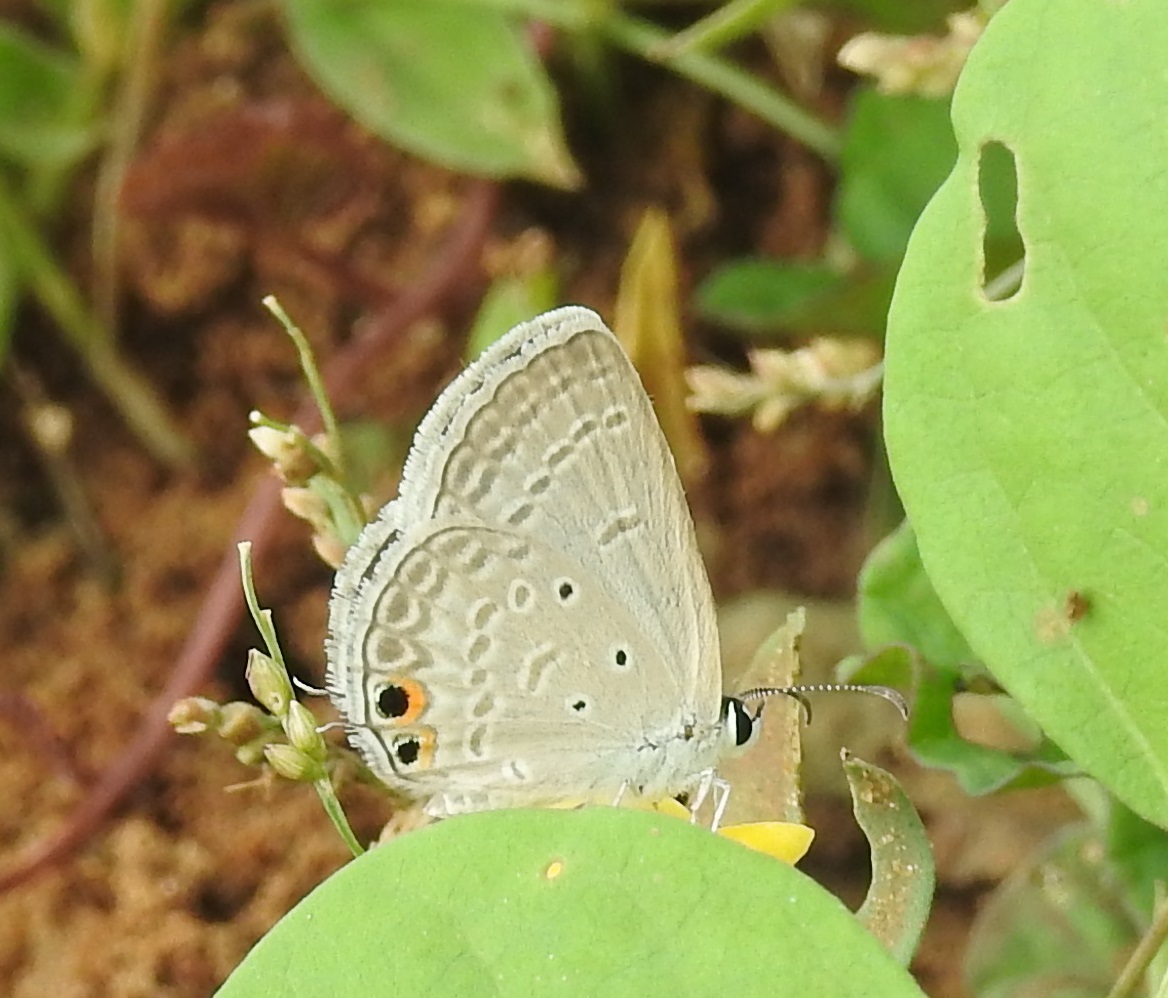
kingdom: Animalia
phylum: Arthropoda
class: Insecta
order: Lepidoptera
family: Lycaenidae
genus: Euchrysops
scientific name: Euchrysops cnejus
